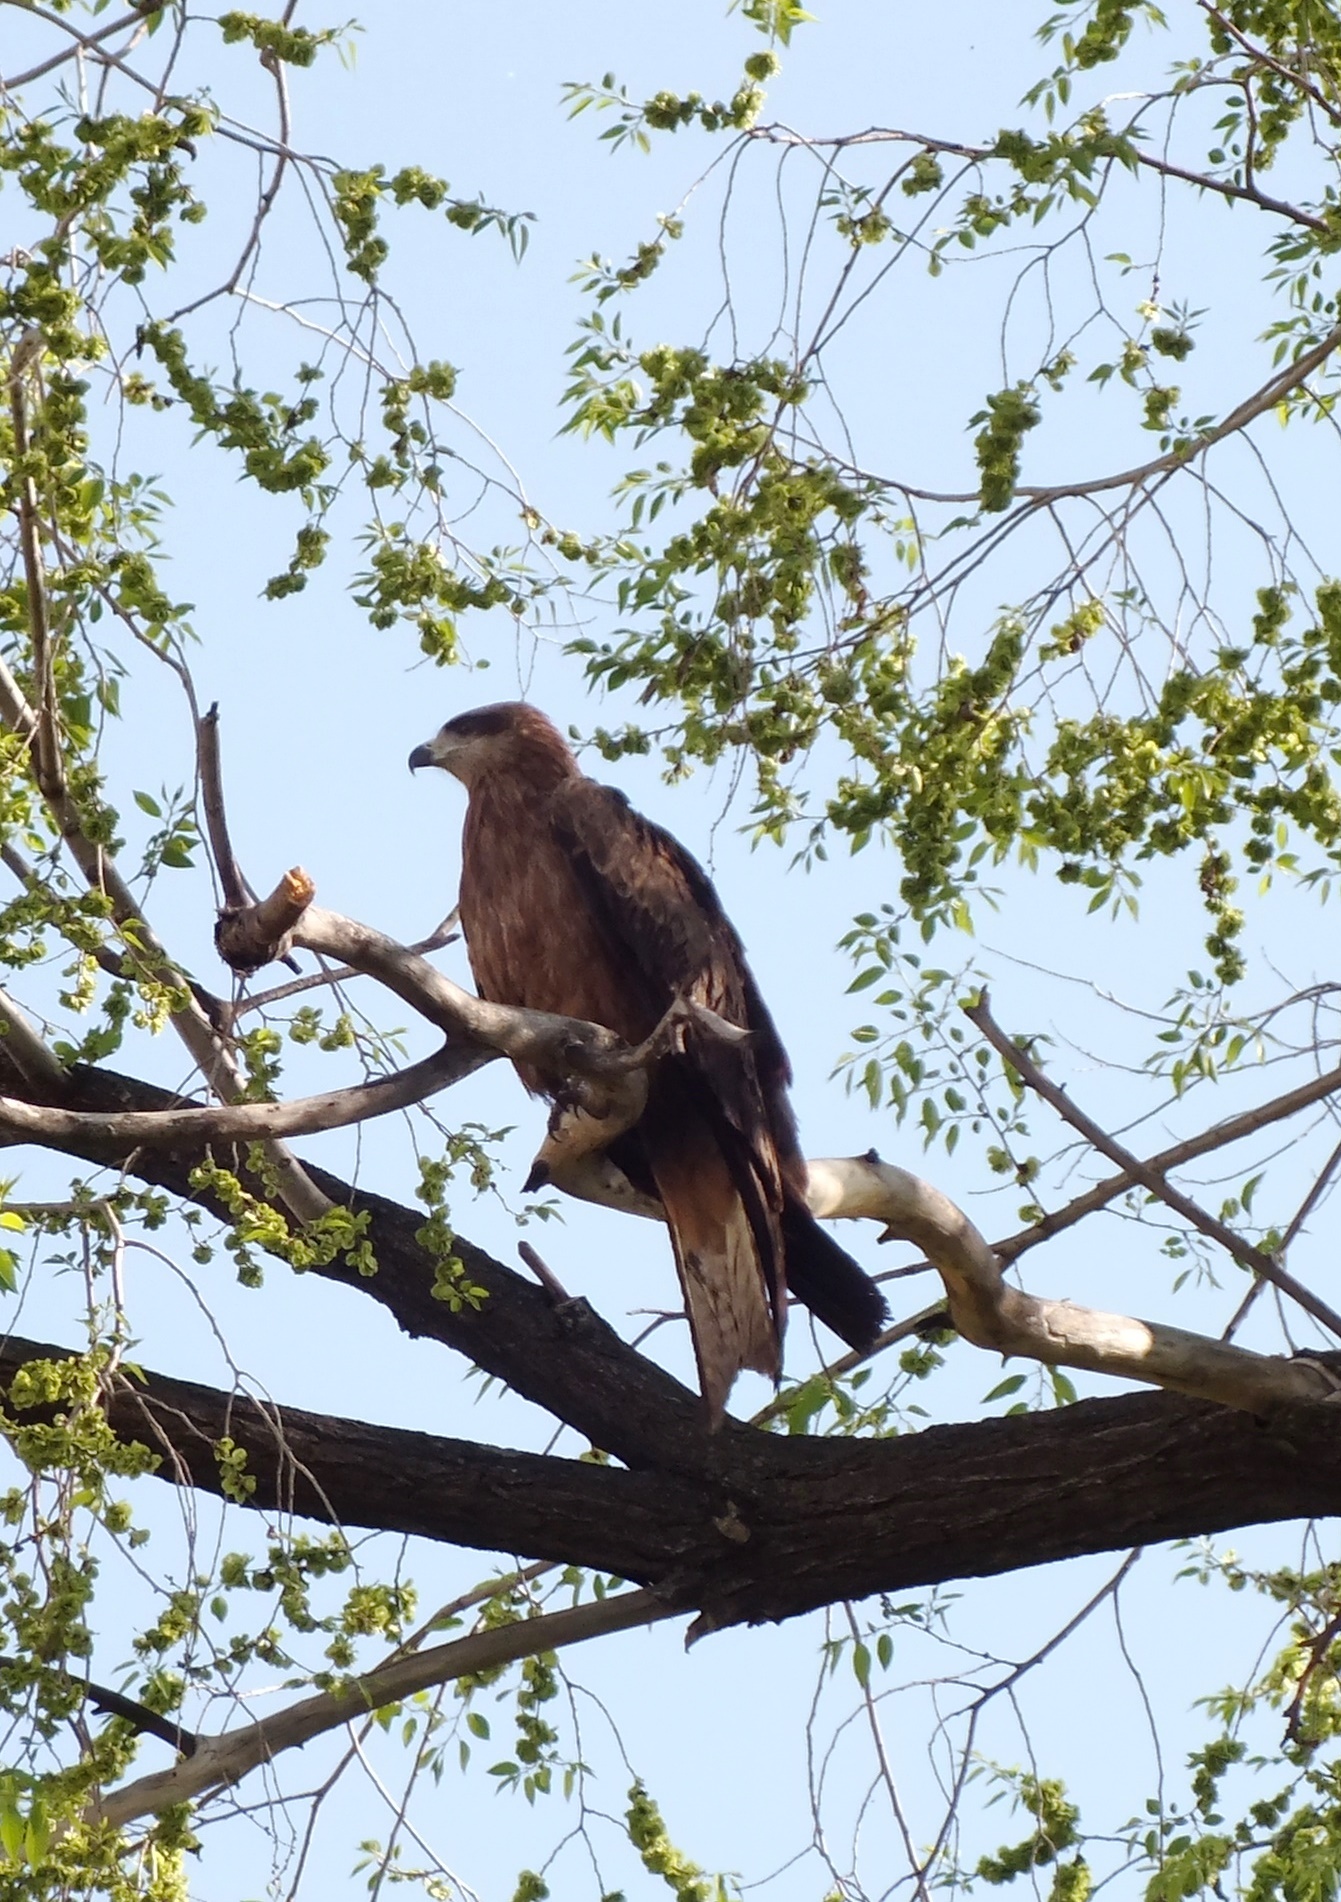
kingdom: Animalia
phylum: Chordata
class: Aves
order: Accipitriformes
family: Accipitridae
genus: Milvus
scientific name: Milvus migrans
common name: Black kite
